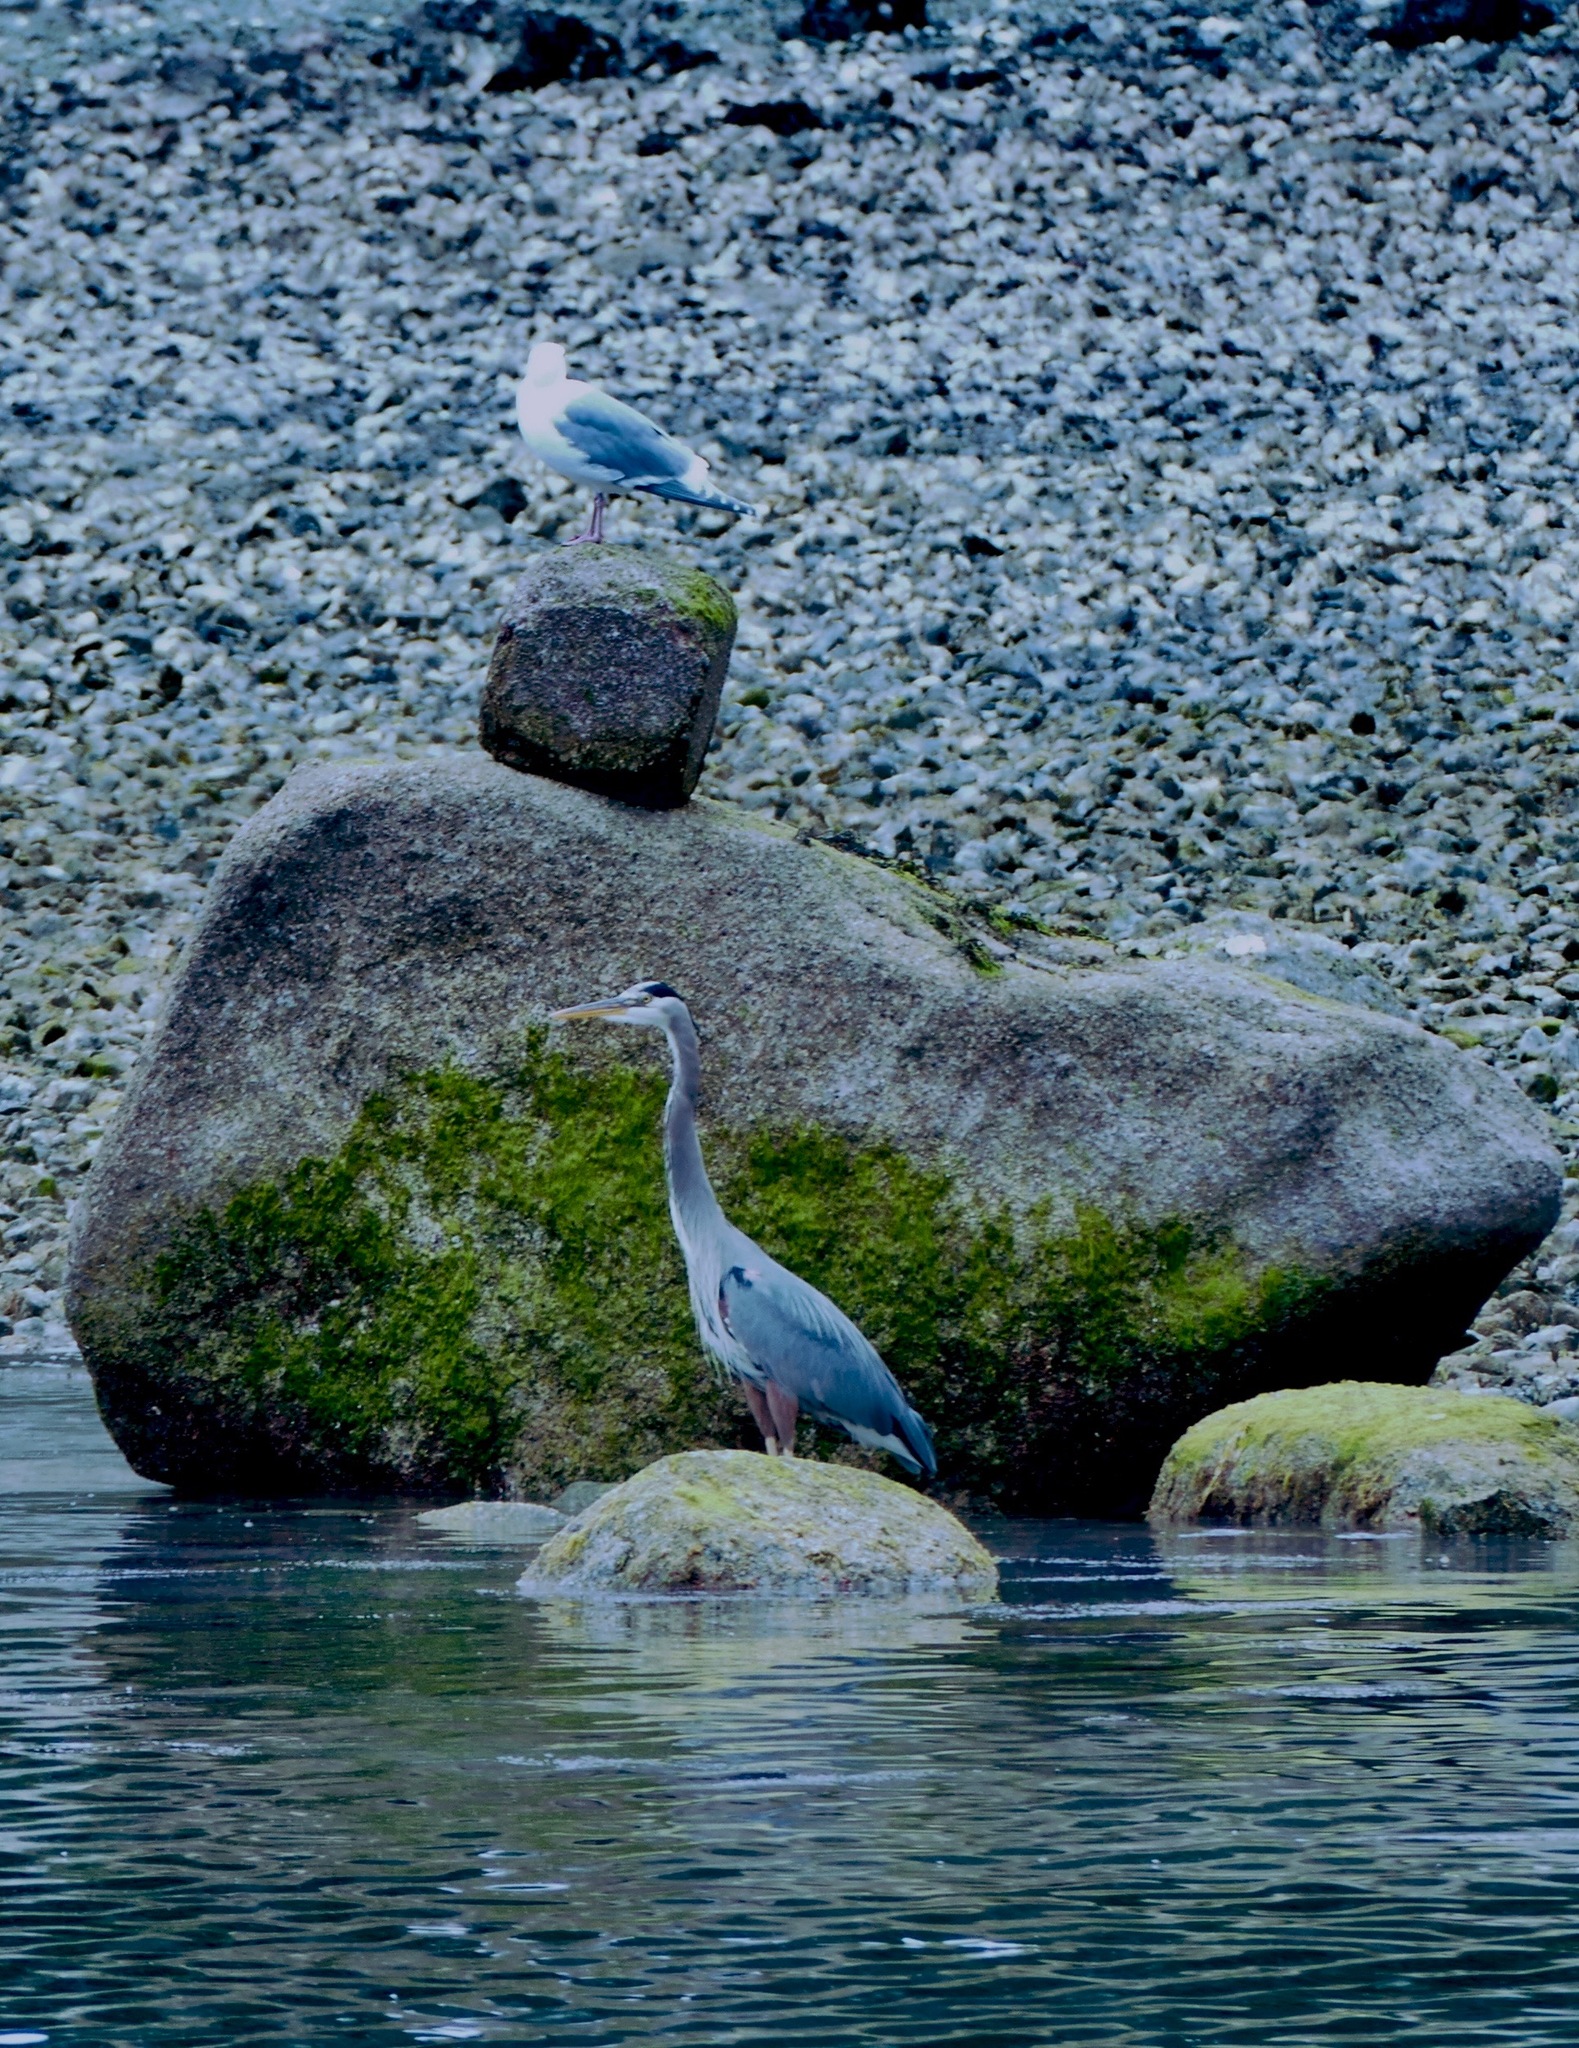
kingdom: Animalia
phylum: Chordata
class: Aves
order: Pelecaniformes
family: Ardeidae
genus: Ardea
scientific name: Ardea herodias
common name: Great blue heron
